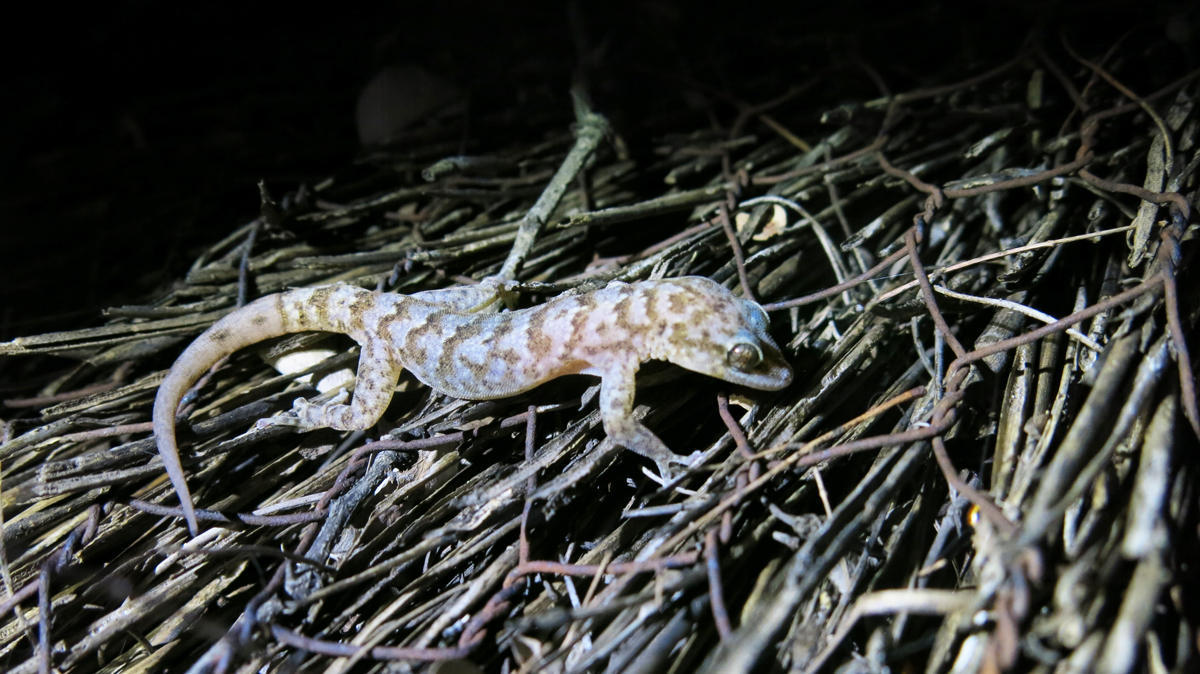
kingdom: Animalia
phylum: Chordata
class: Squamata
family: Gekkonidae
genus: Afroedura
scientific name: Afroedura pienaari
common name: Pienaar’s rock gecko
